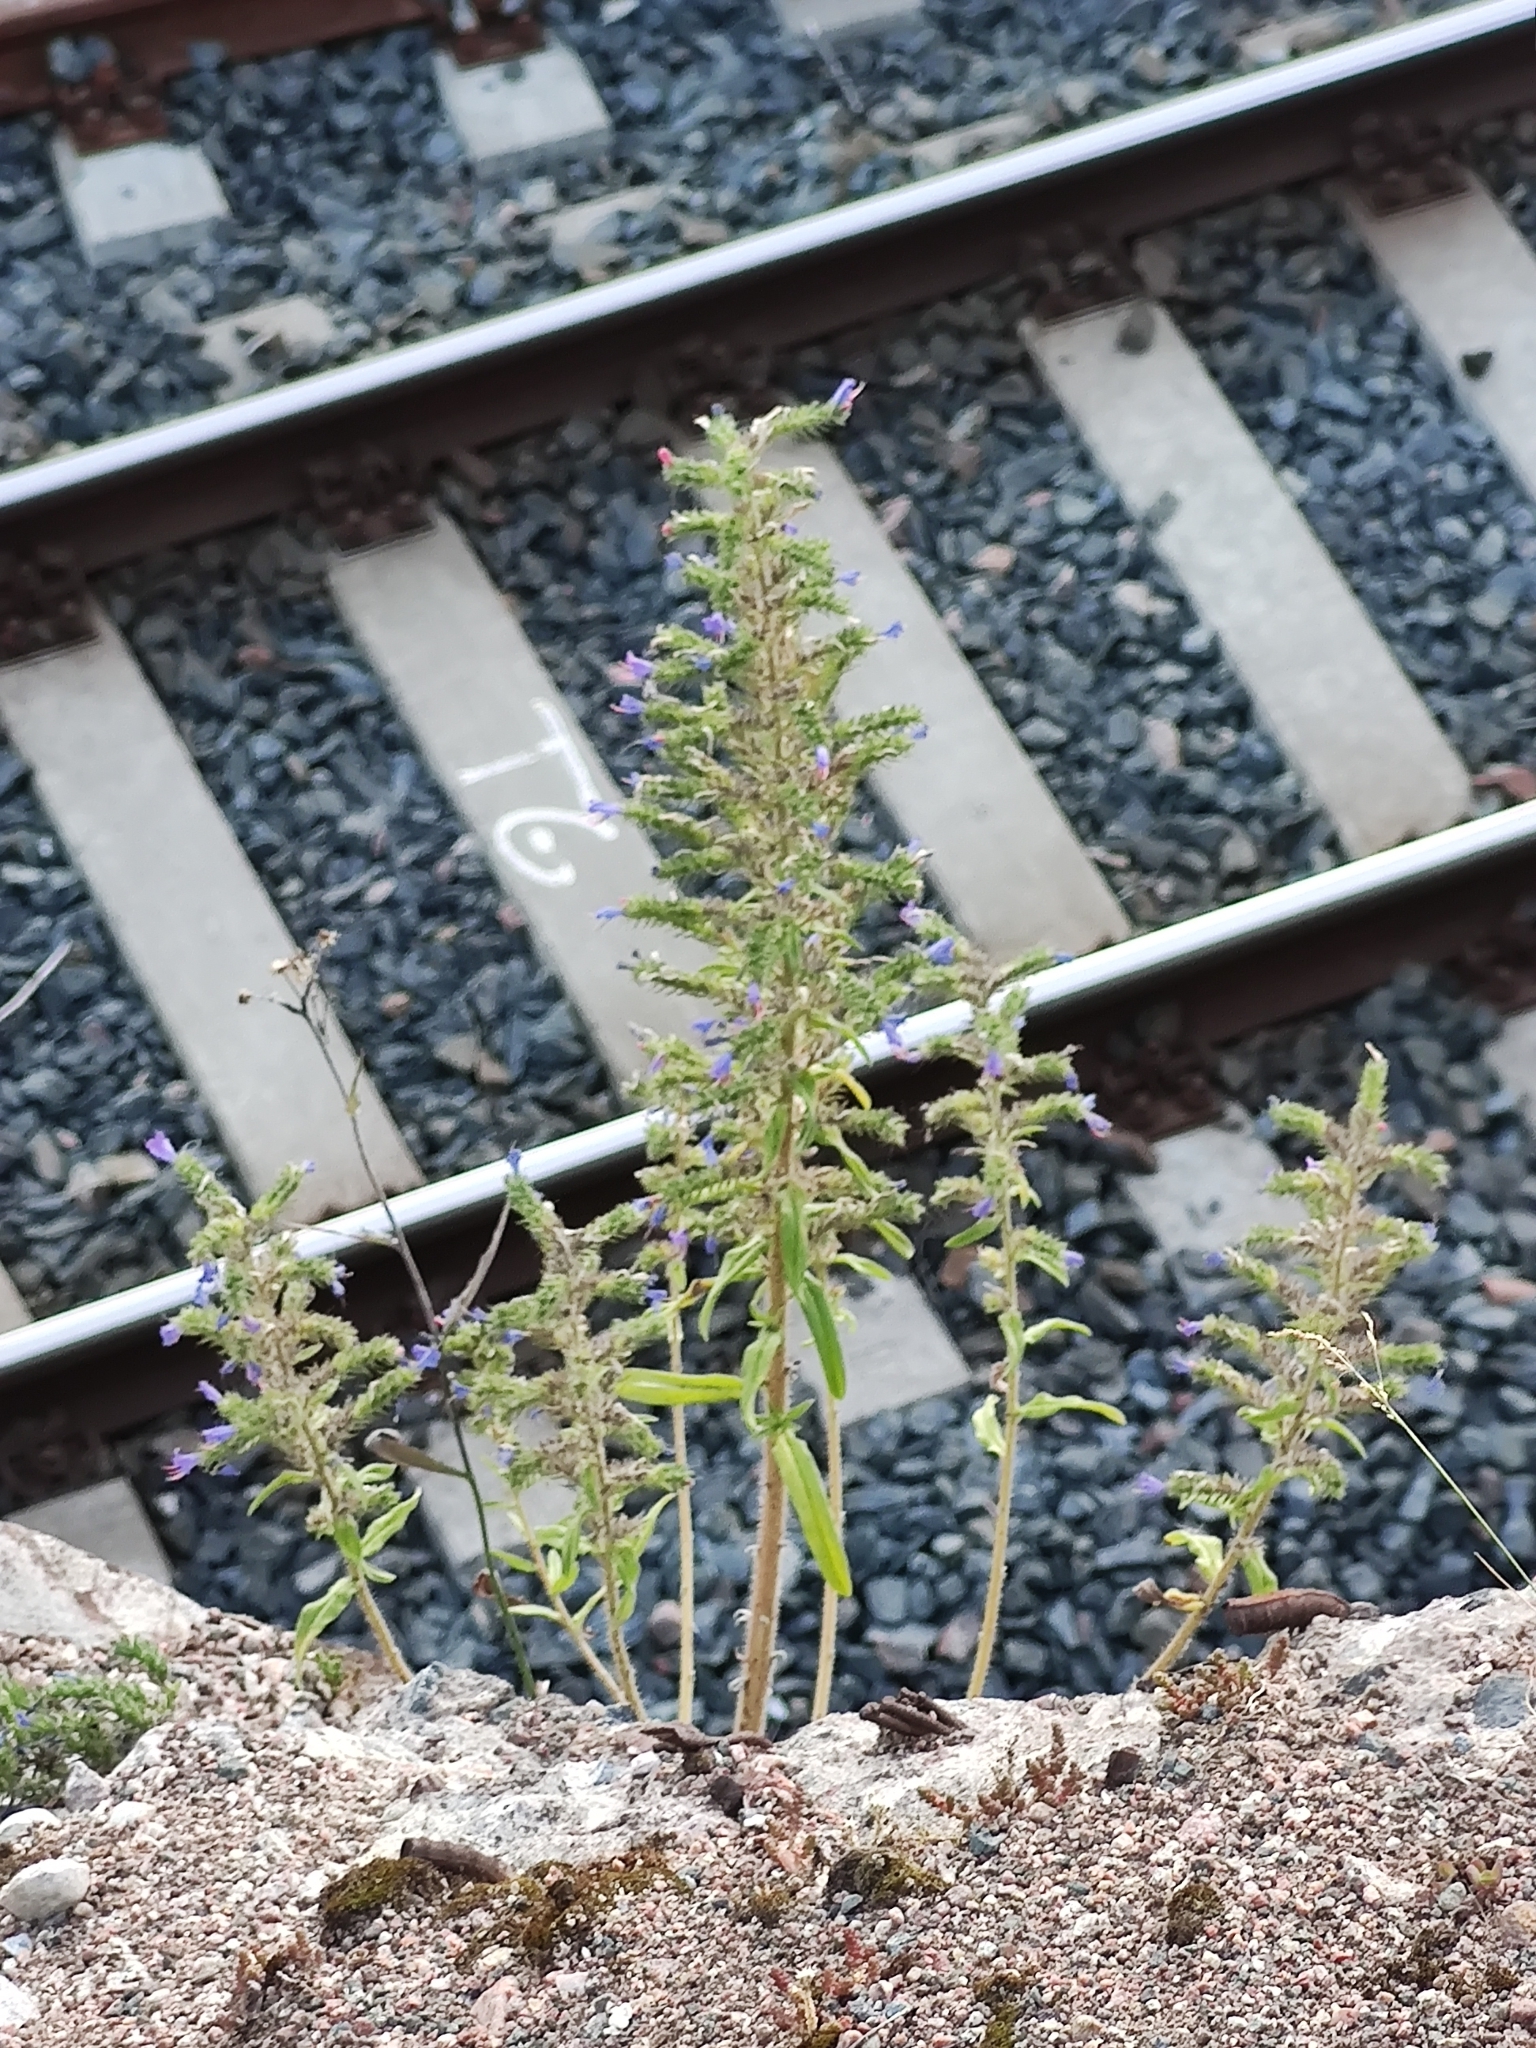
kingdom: Plantae
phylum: Tracheophyta
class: Magnoliopsida
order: Boraginales
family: Boraginaceae
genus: Echium
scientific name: Echium vulgare
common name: Common viper's bugloss
